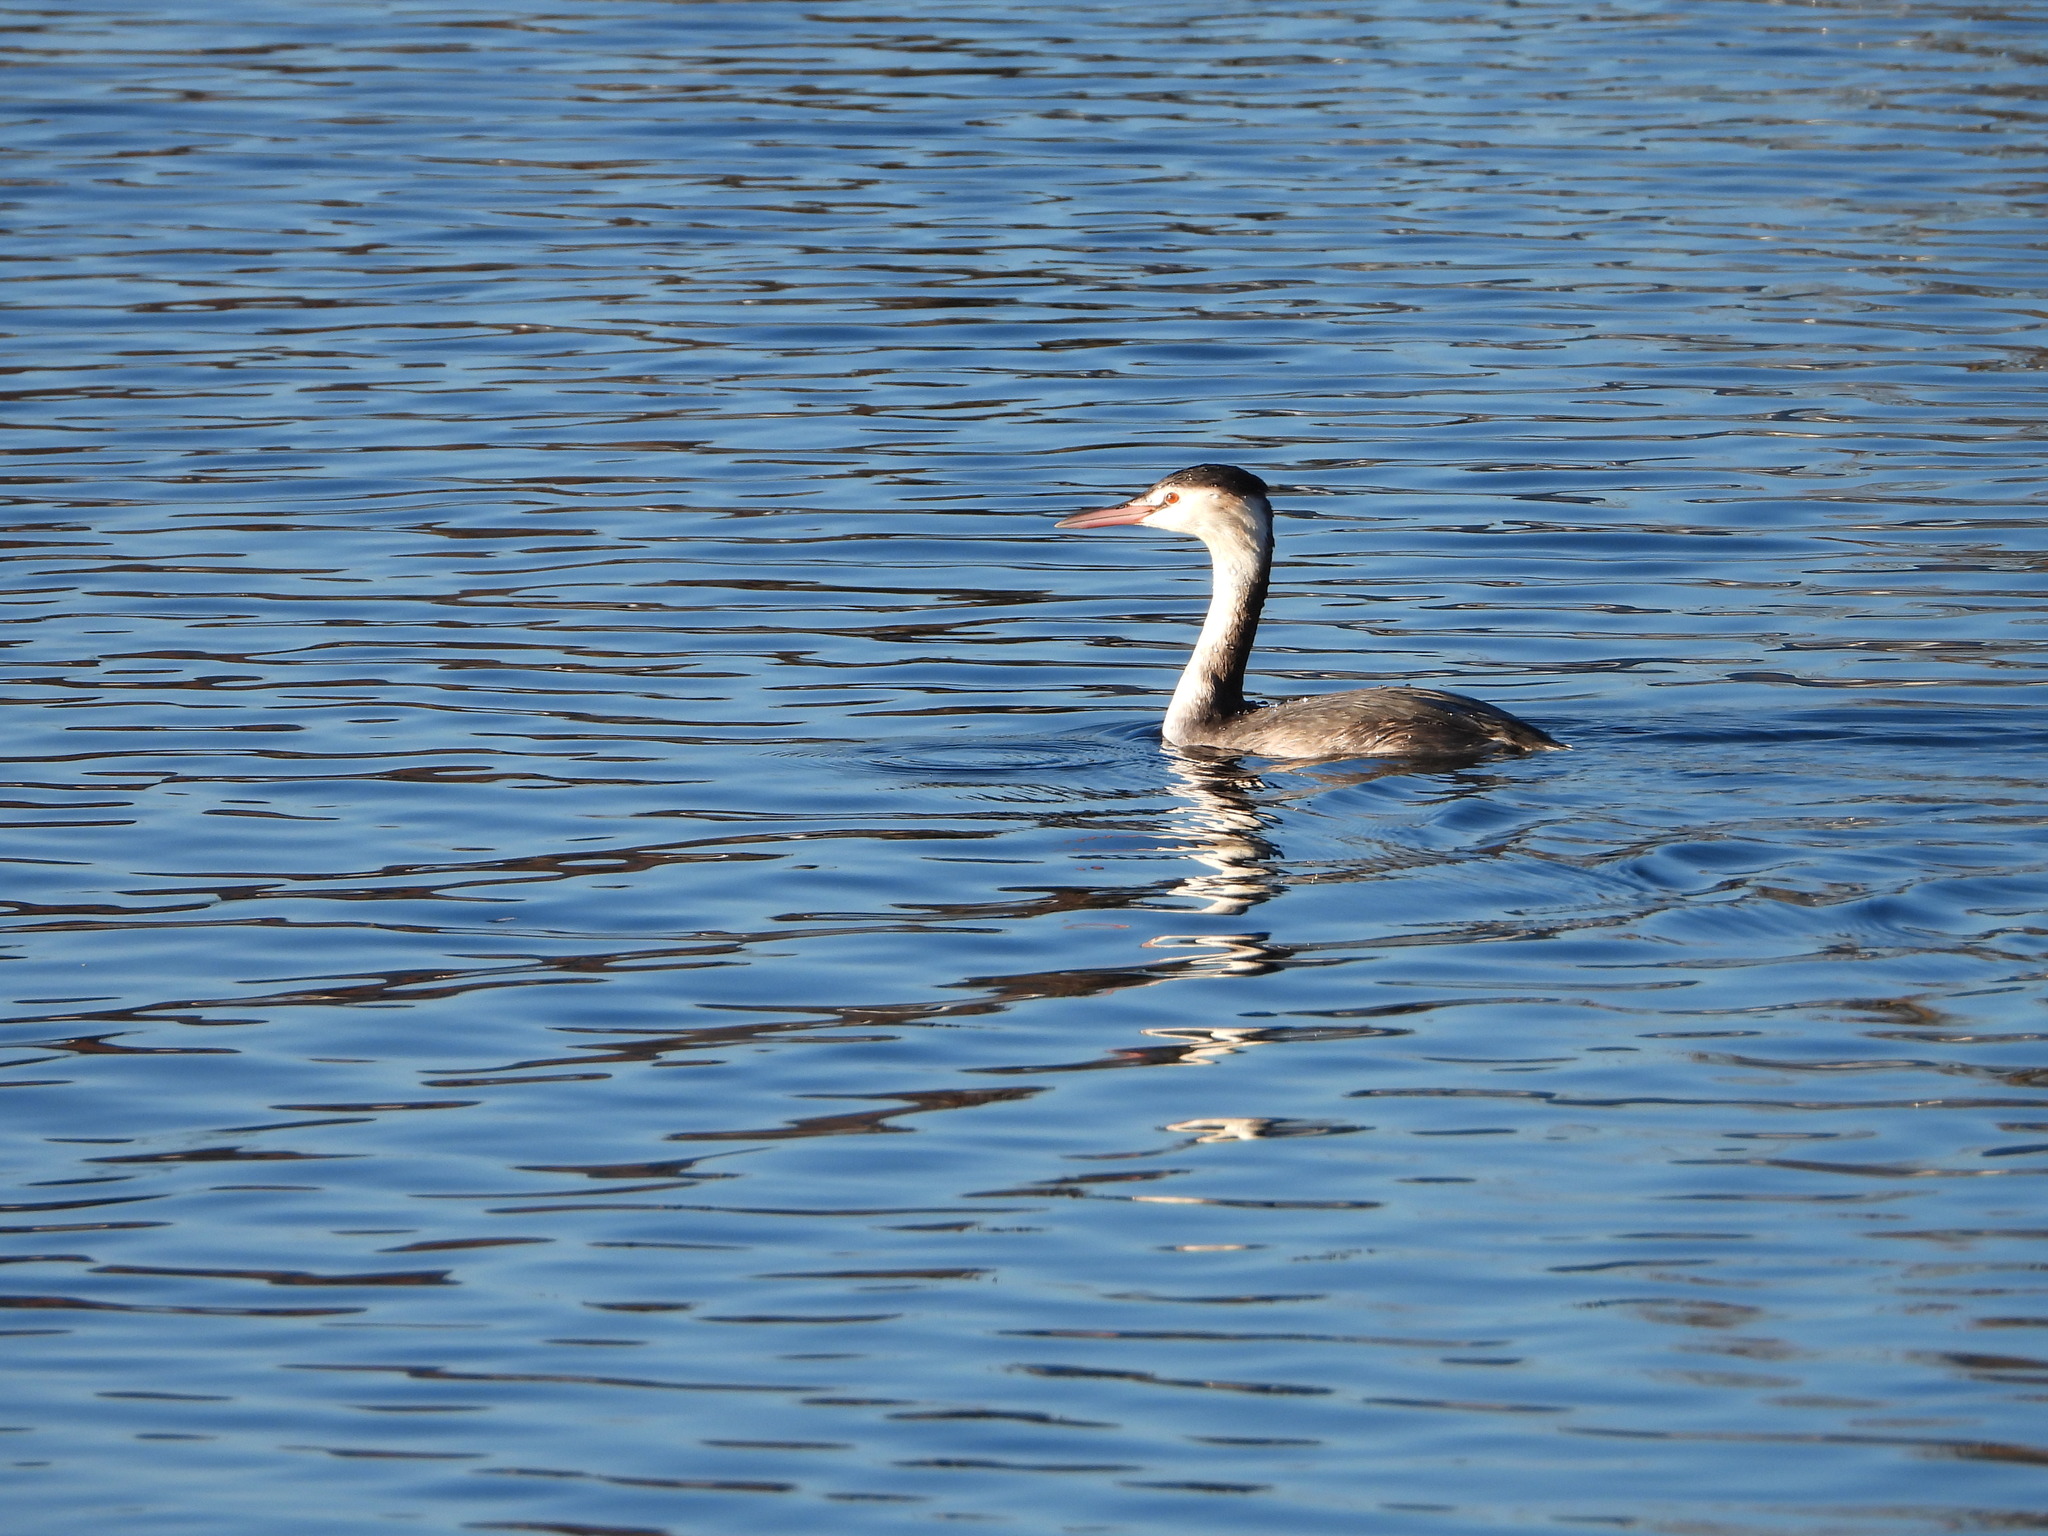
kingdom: Animalia
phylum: Chordata
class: Aves
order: Podicipediformes
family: Podicipedidae
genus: Podiceps
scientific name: Podiceps cristatus
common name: Great crested grebe
